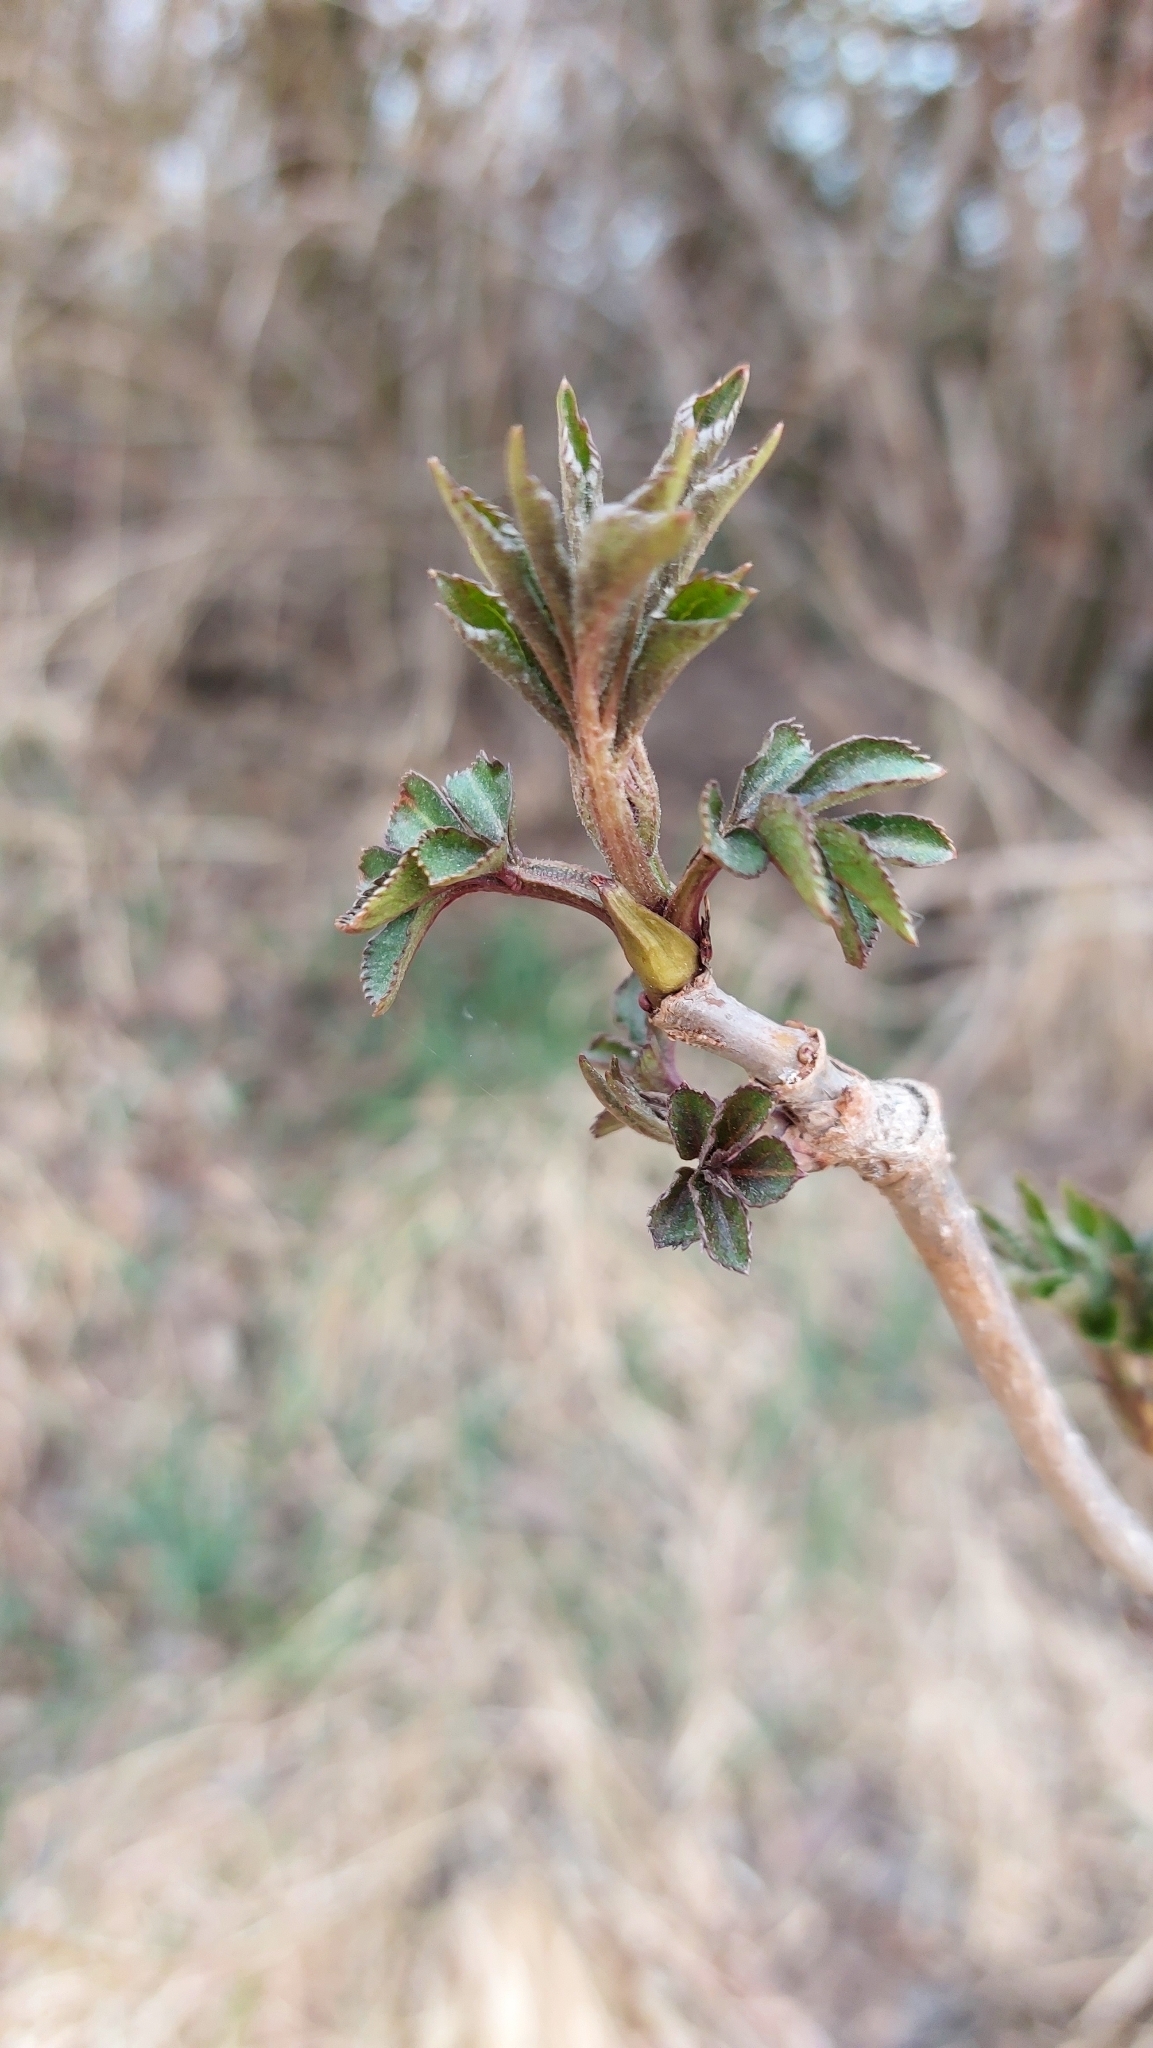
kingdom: Plantae
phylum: Tracheophyta
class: Magnoliopsida
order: Dipsacales
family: Viburnaceae
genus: Sambucus
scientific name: Sambucus nigra
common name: Elder
